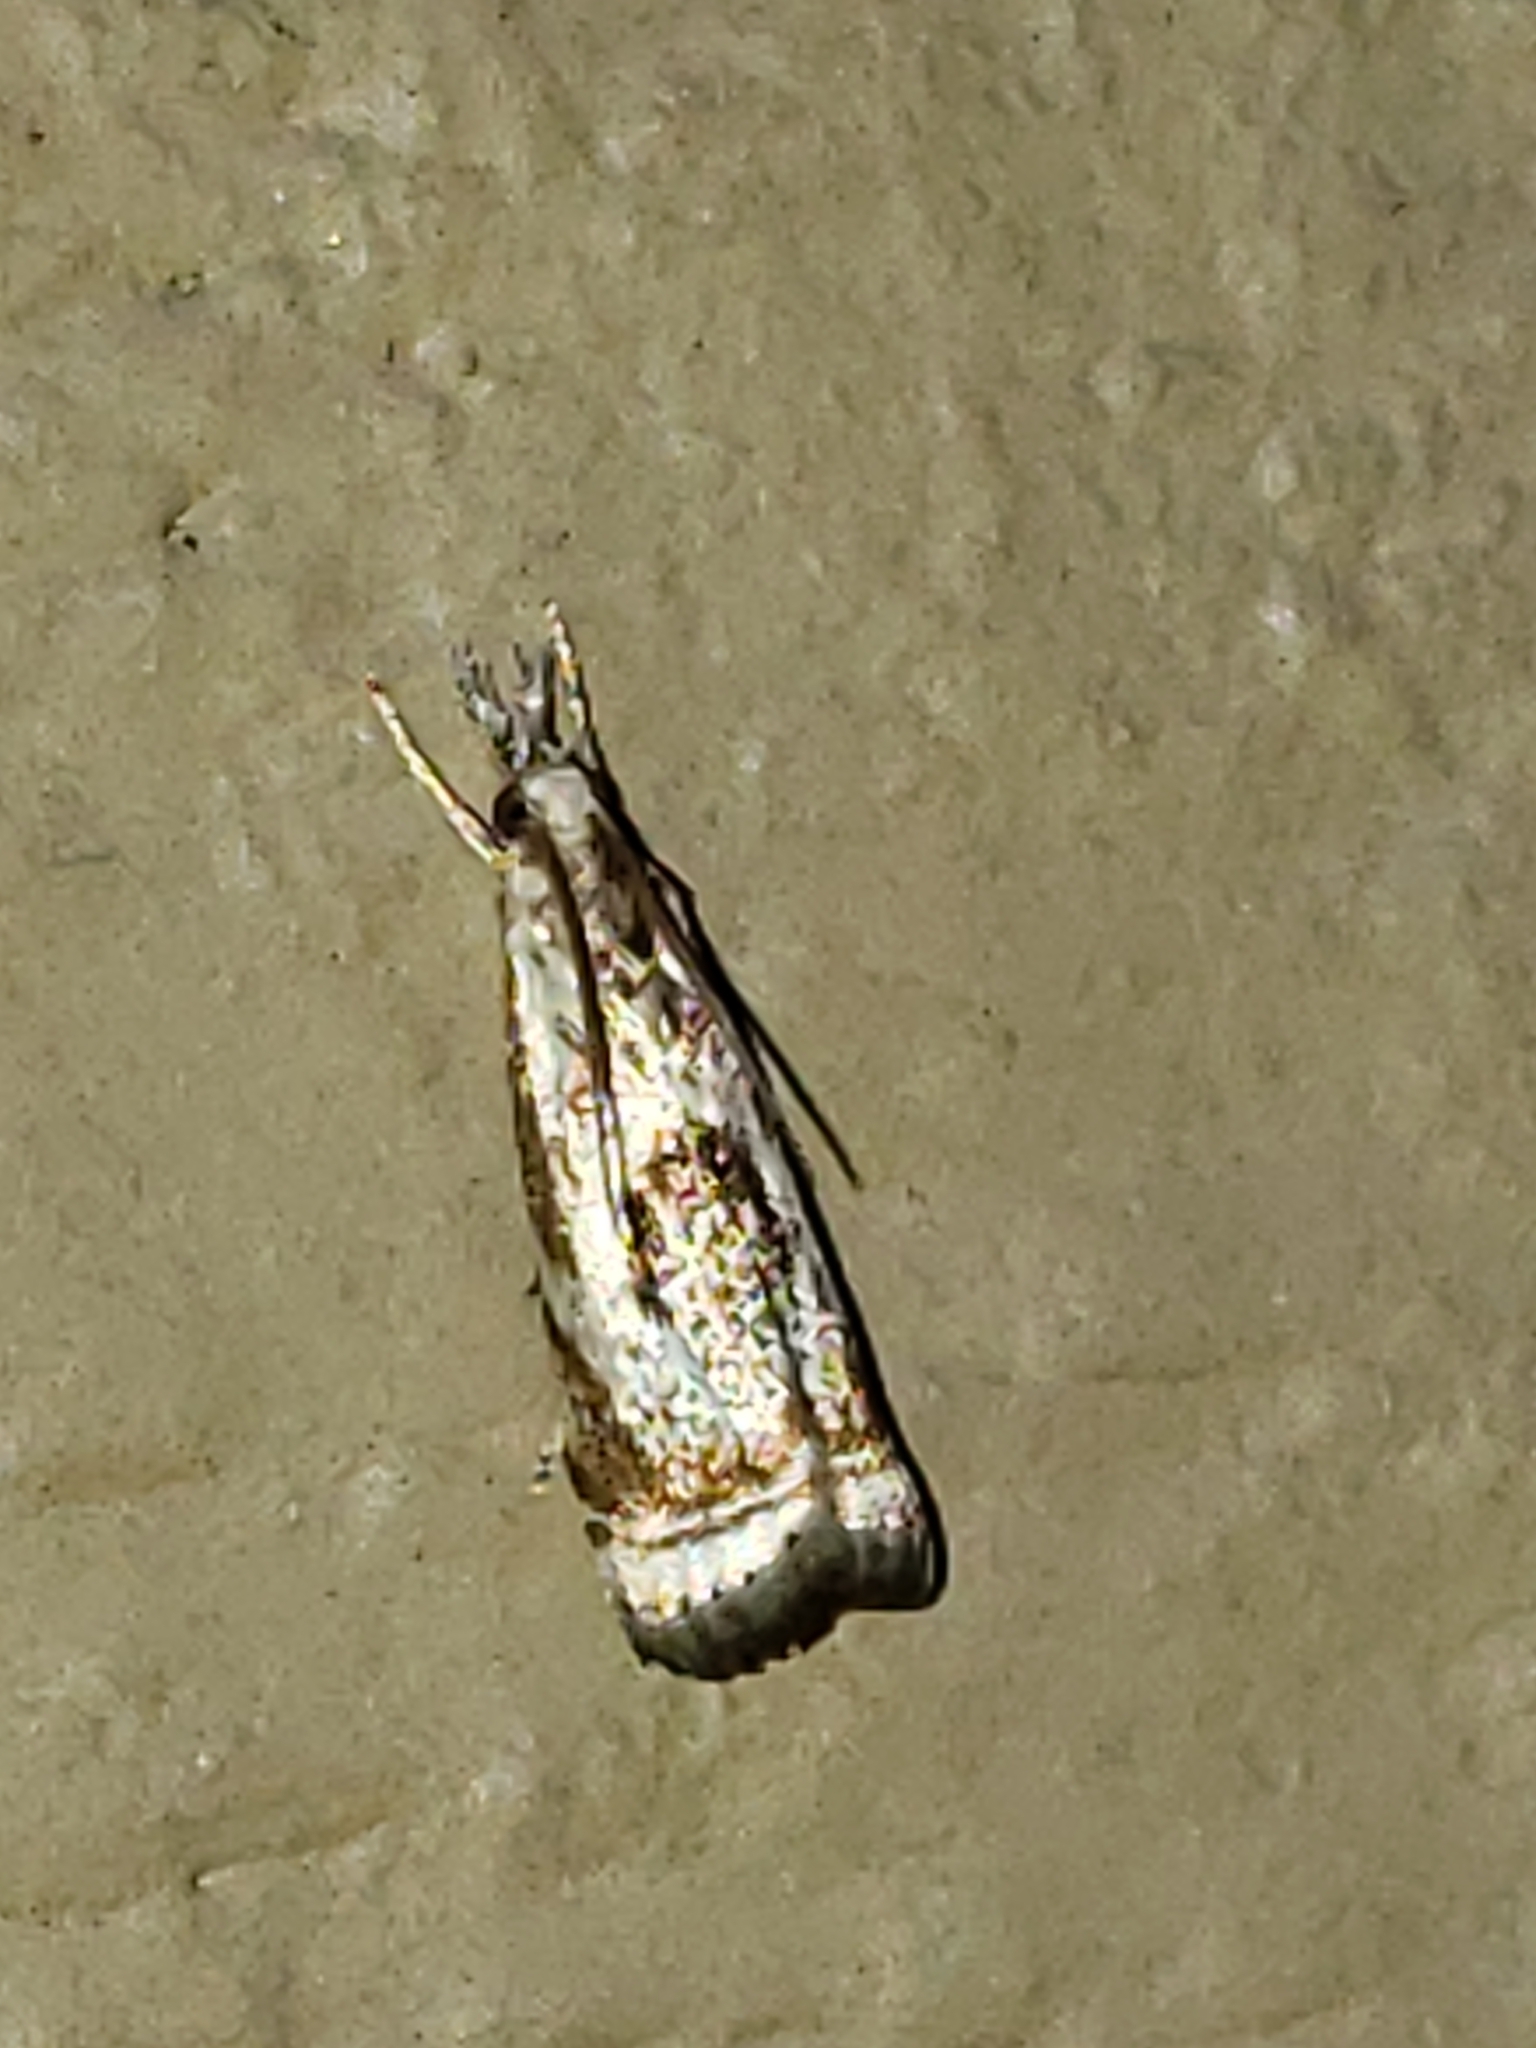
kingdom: Animalia
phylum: Arthropoda
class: Insecta
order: Lepidoptera
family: Crambidae
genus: Microcrambus
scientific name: Microcrambus elegans
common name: Elegant grass-veneer
